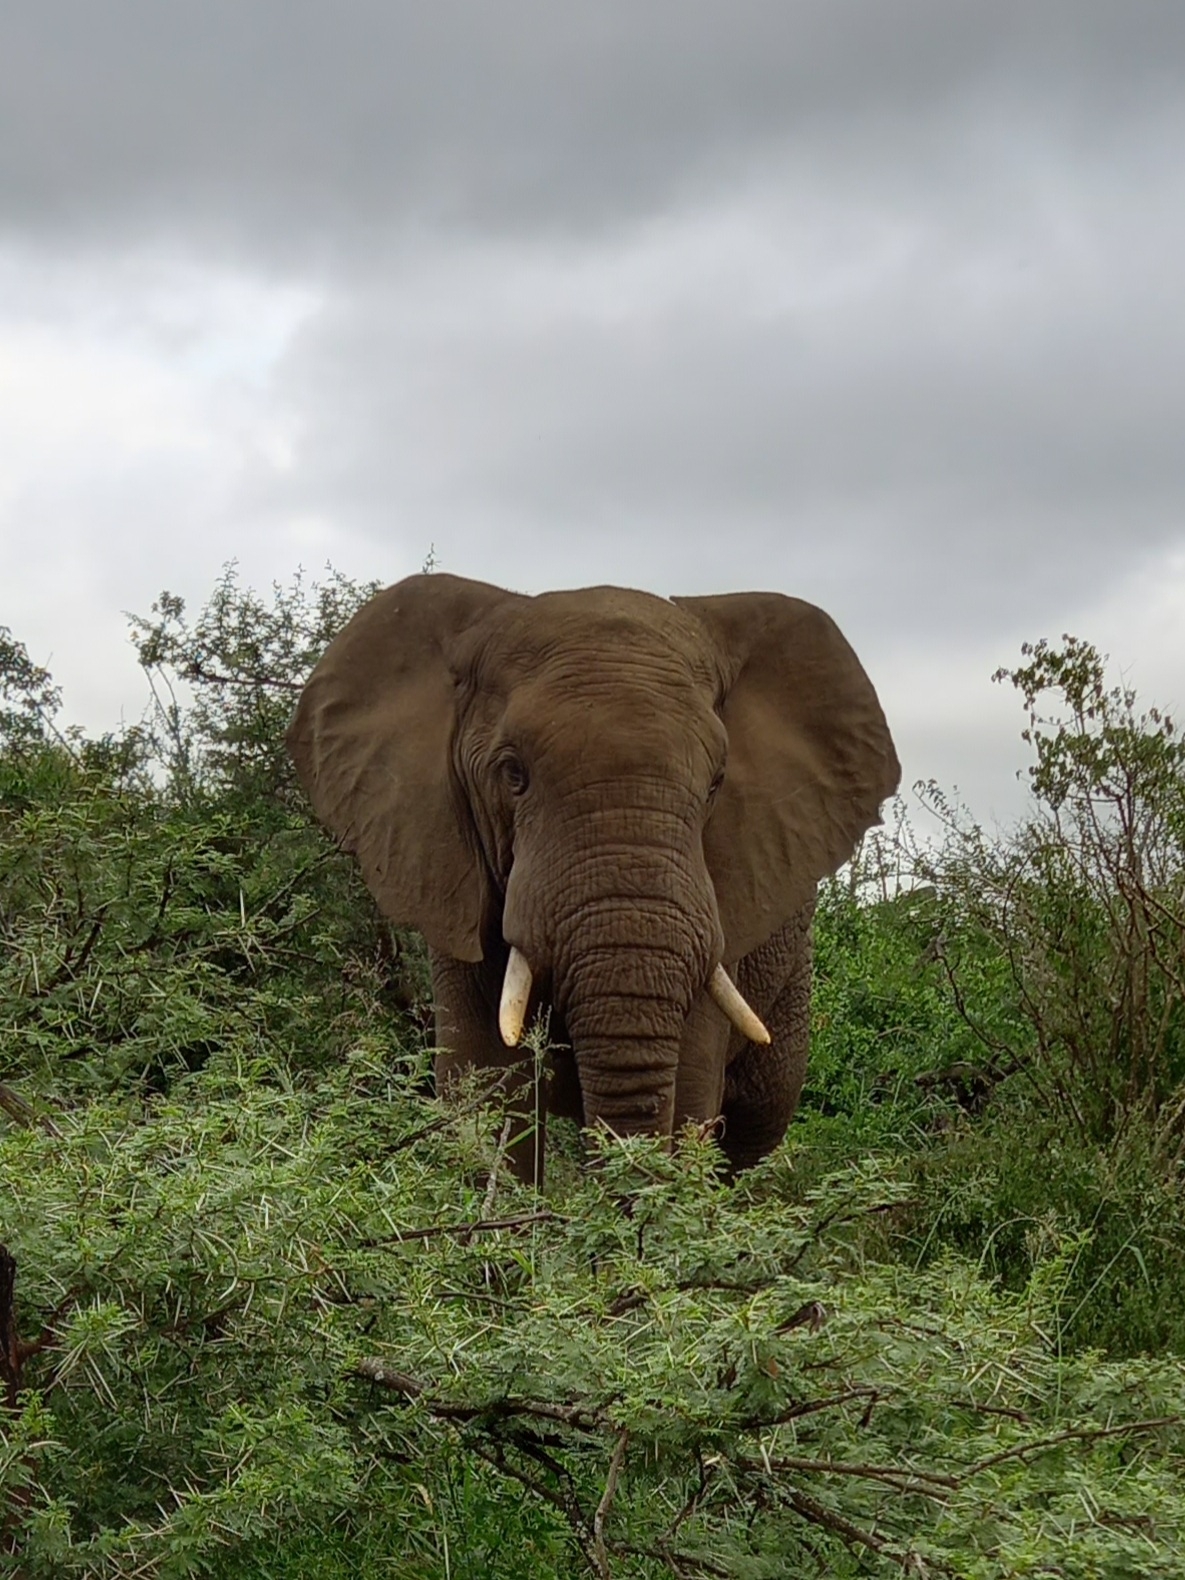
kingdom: Animalia
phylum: Chordata
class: Mammalia
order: Proboscidea
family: Elephantidae
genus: Loxodonta
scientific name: Loxodonta africana
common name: African elephant
